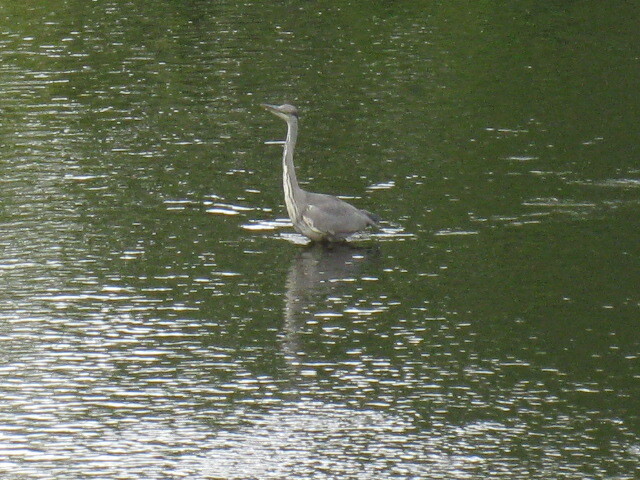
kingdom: Animalia
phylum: Chordata
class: Aves
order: Pelecaniformes
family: Ardeidae
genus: Ardea
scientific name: Ardea cinerea
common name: Grey heron
